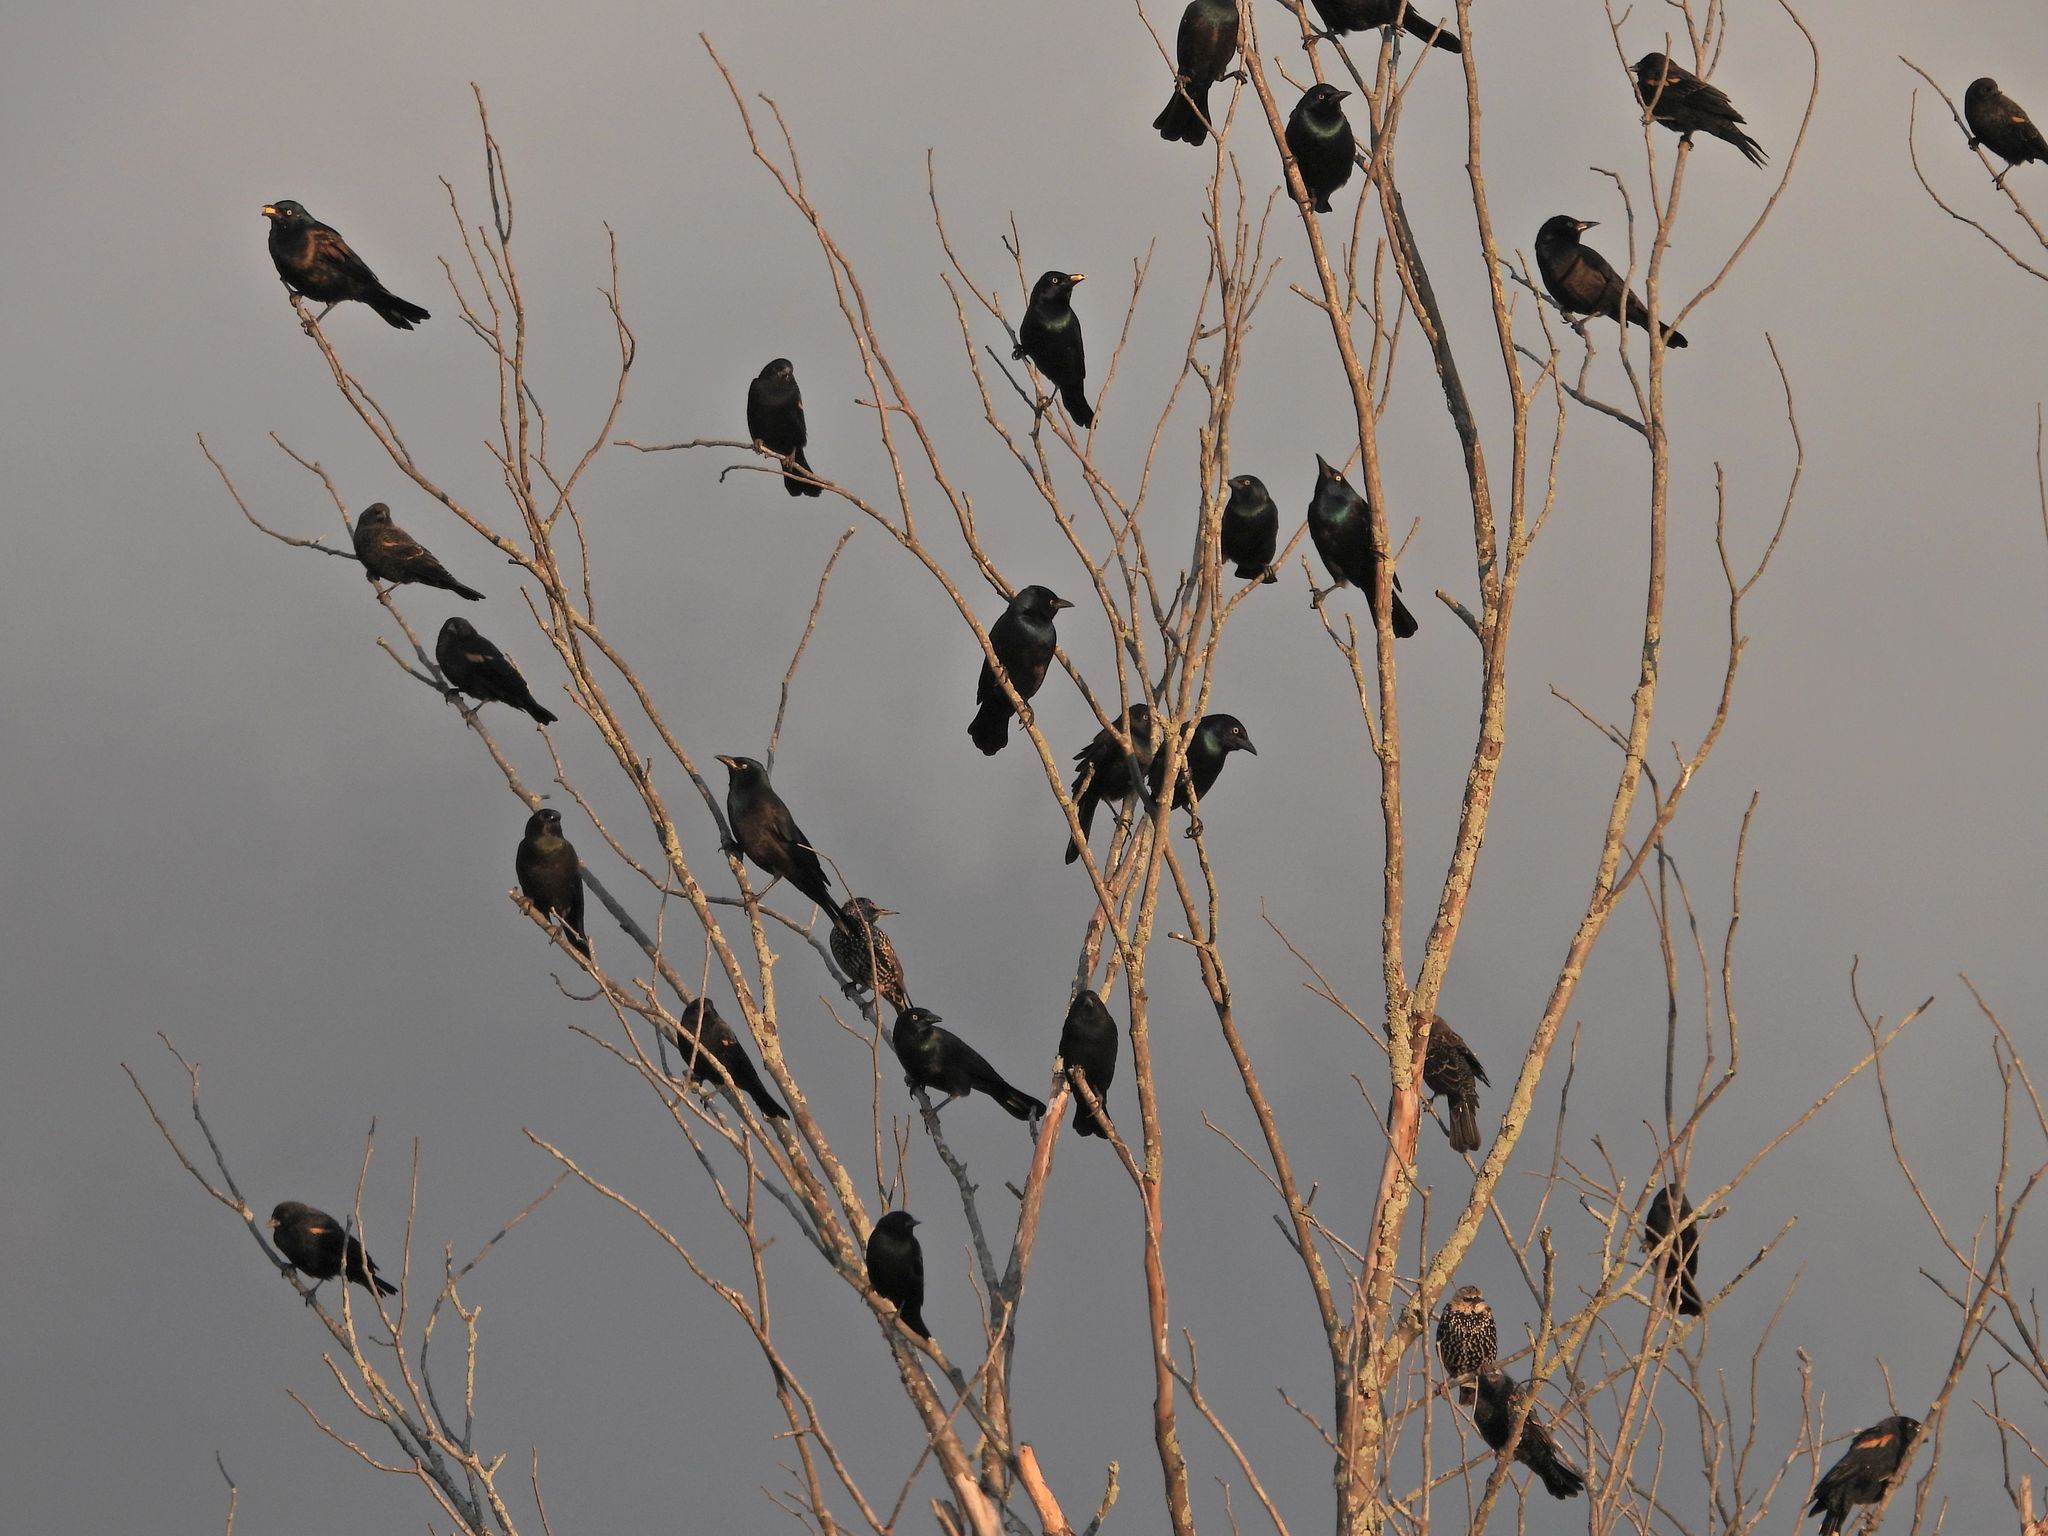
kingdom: Animalia
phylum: Chordata
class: Aves
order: Passeriformes
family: Icteridae
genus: Quiscalus
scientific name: Quiscalus quiscula
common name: Common grackle
